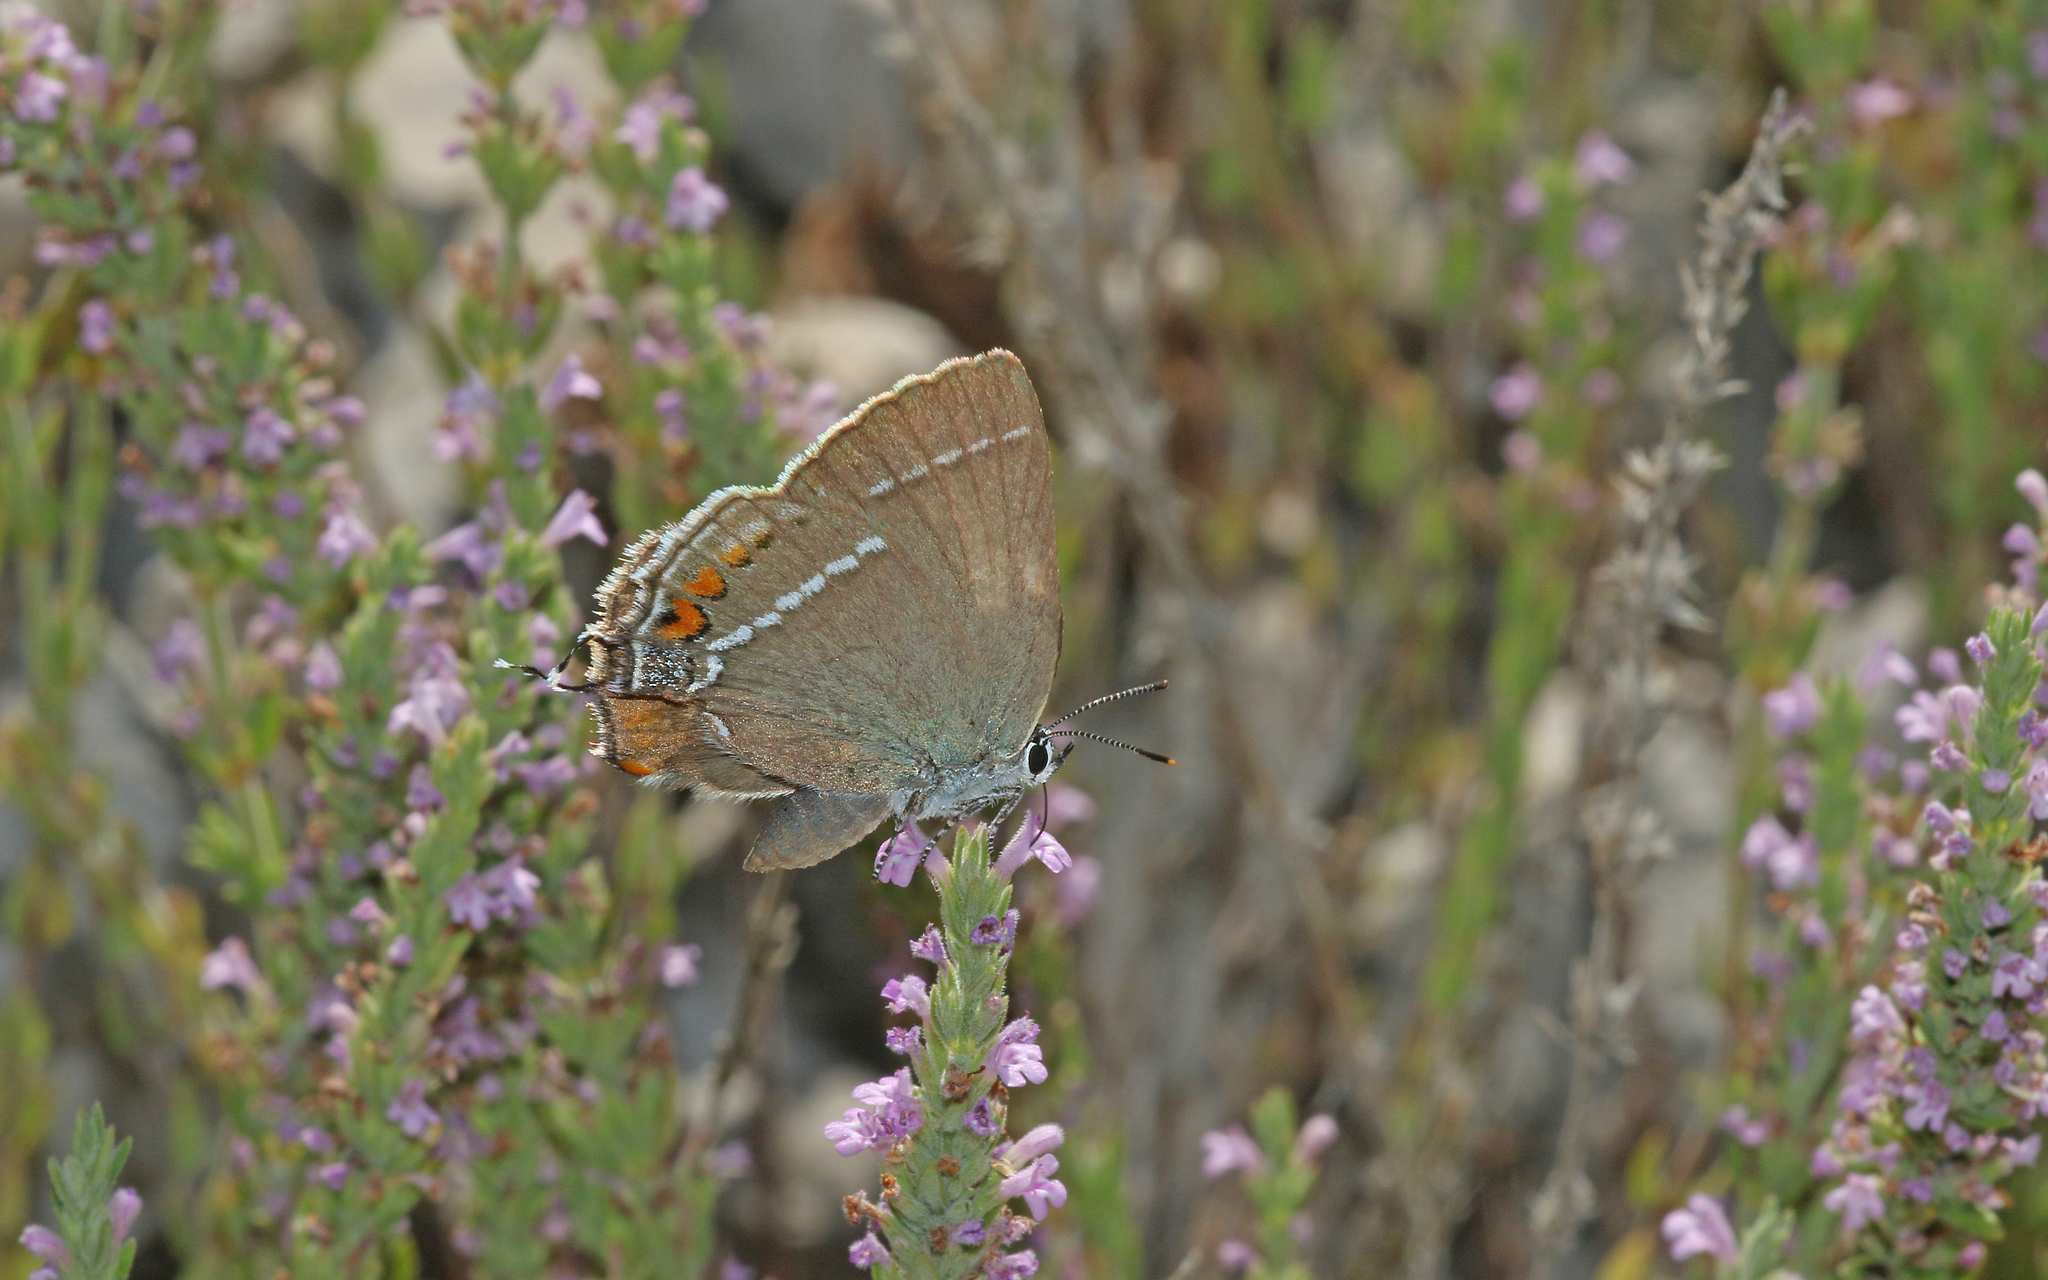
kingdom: Animalia
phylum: Arthropoda
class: Insecta
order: Lepidoptera
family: Lycaenidae
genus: Tuttiola
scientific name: Tuttiola spini
